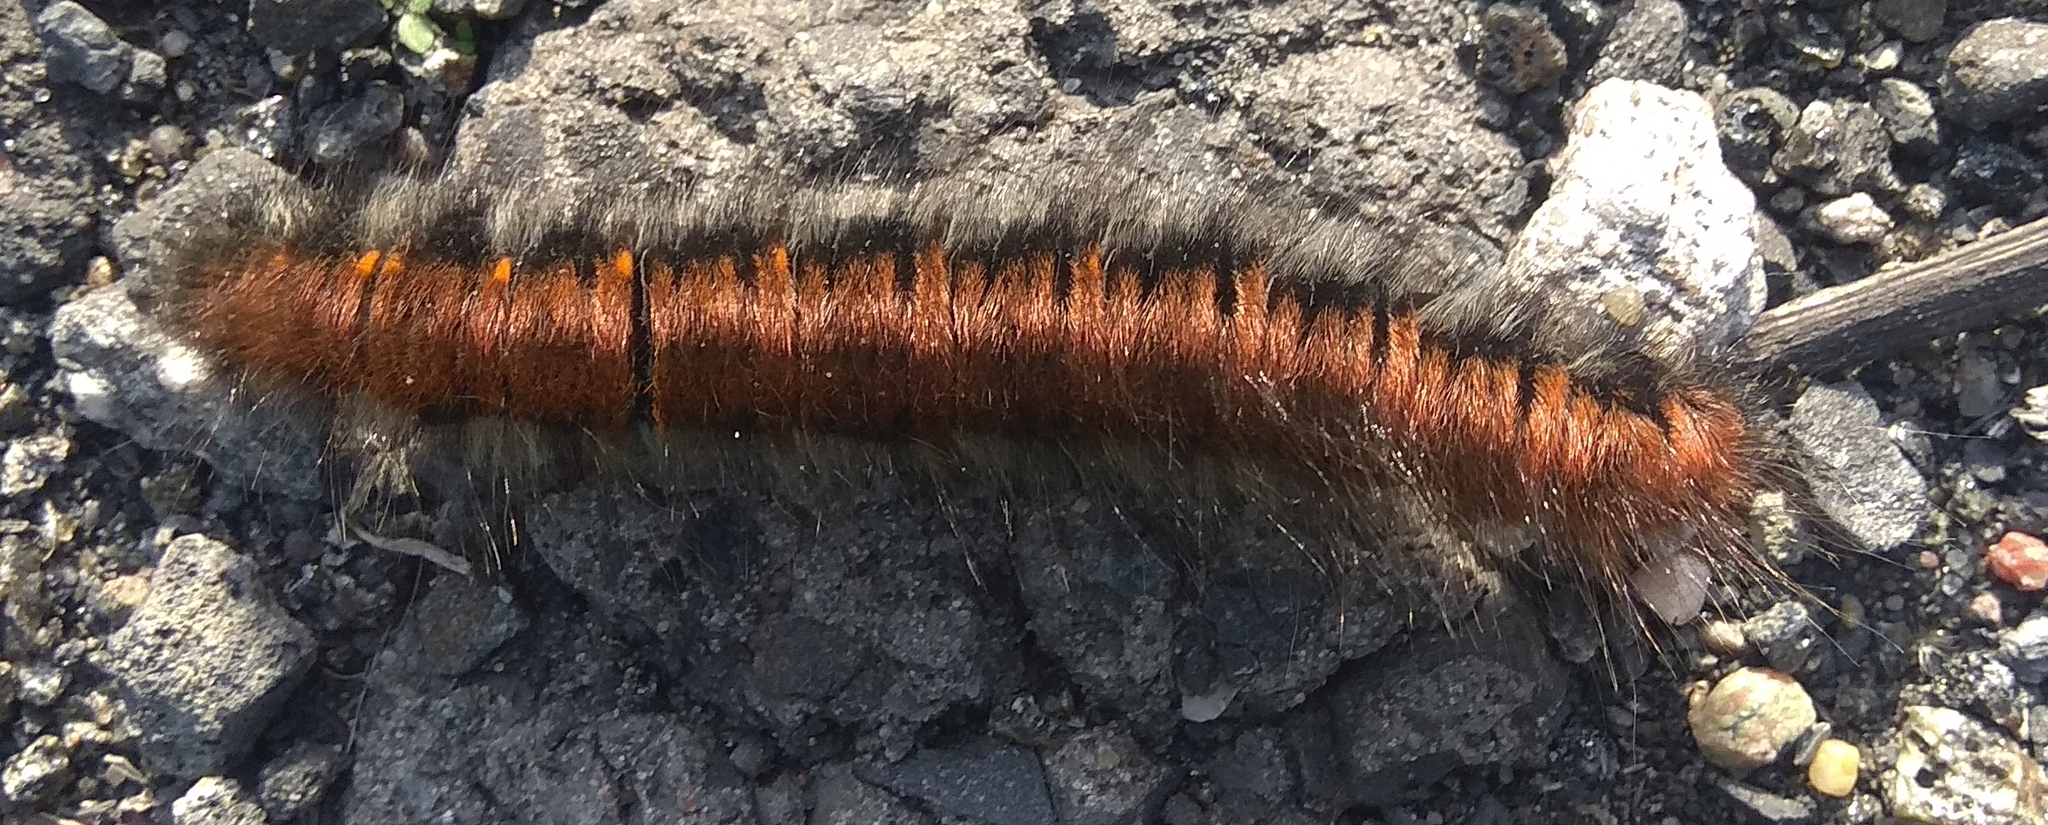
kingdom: Animalia
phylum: Arthropoda
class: Insecta
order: Lepidoptera
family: Lasiocampidae
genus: Macrothylacia
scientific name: Macrothylacia rubi
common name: Fox moth
